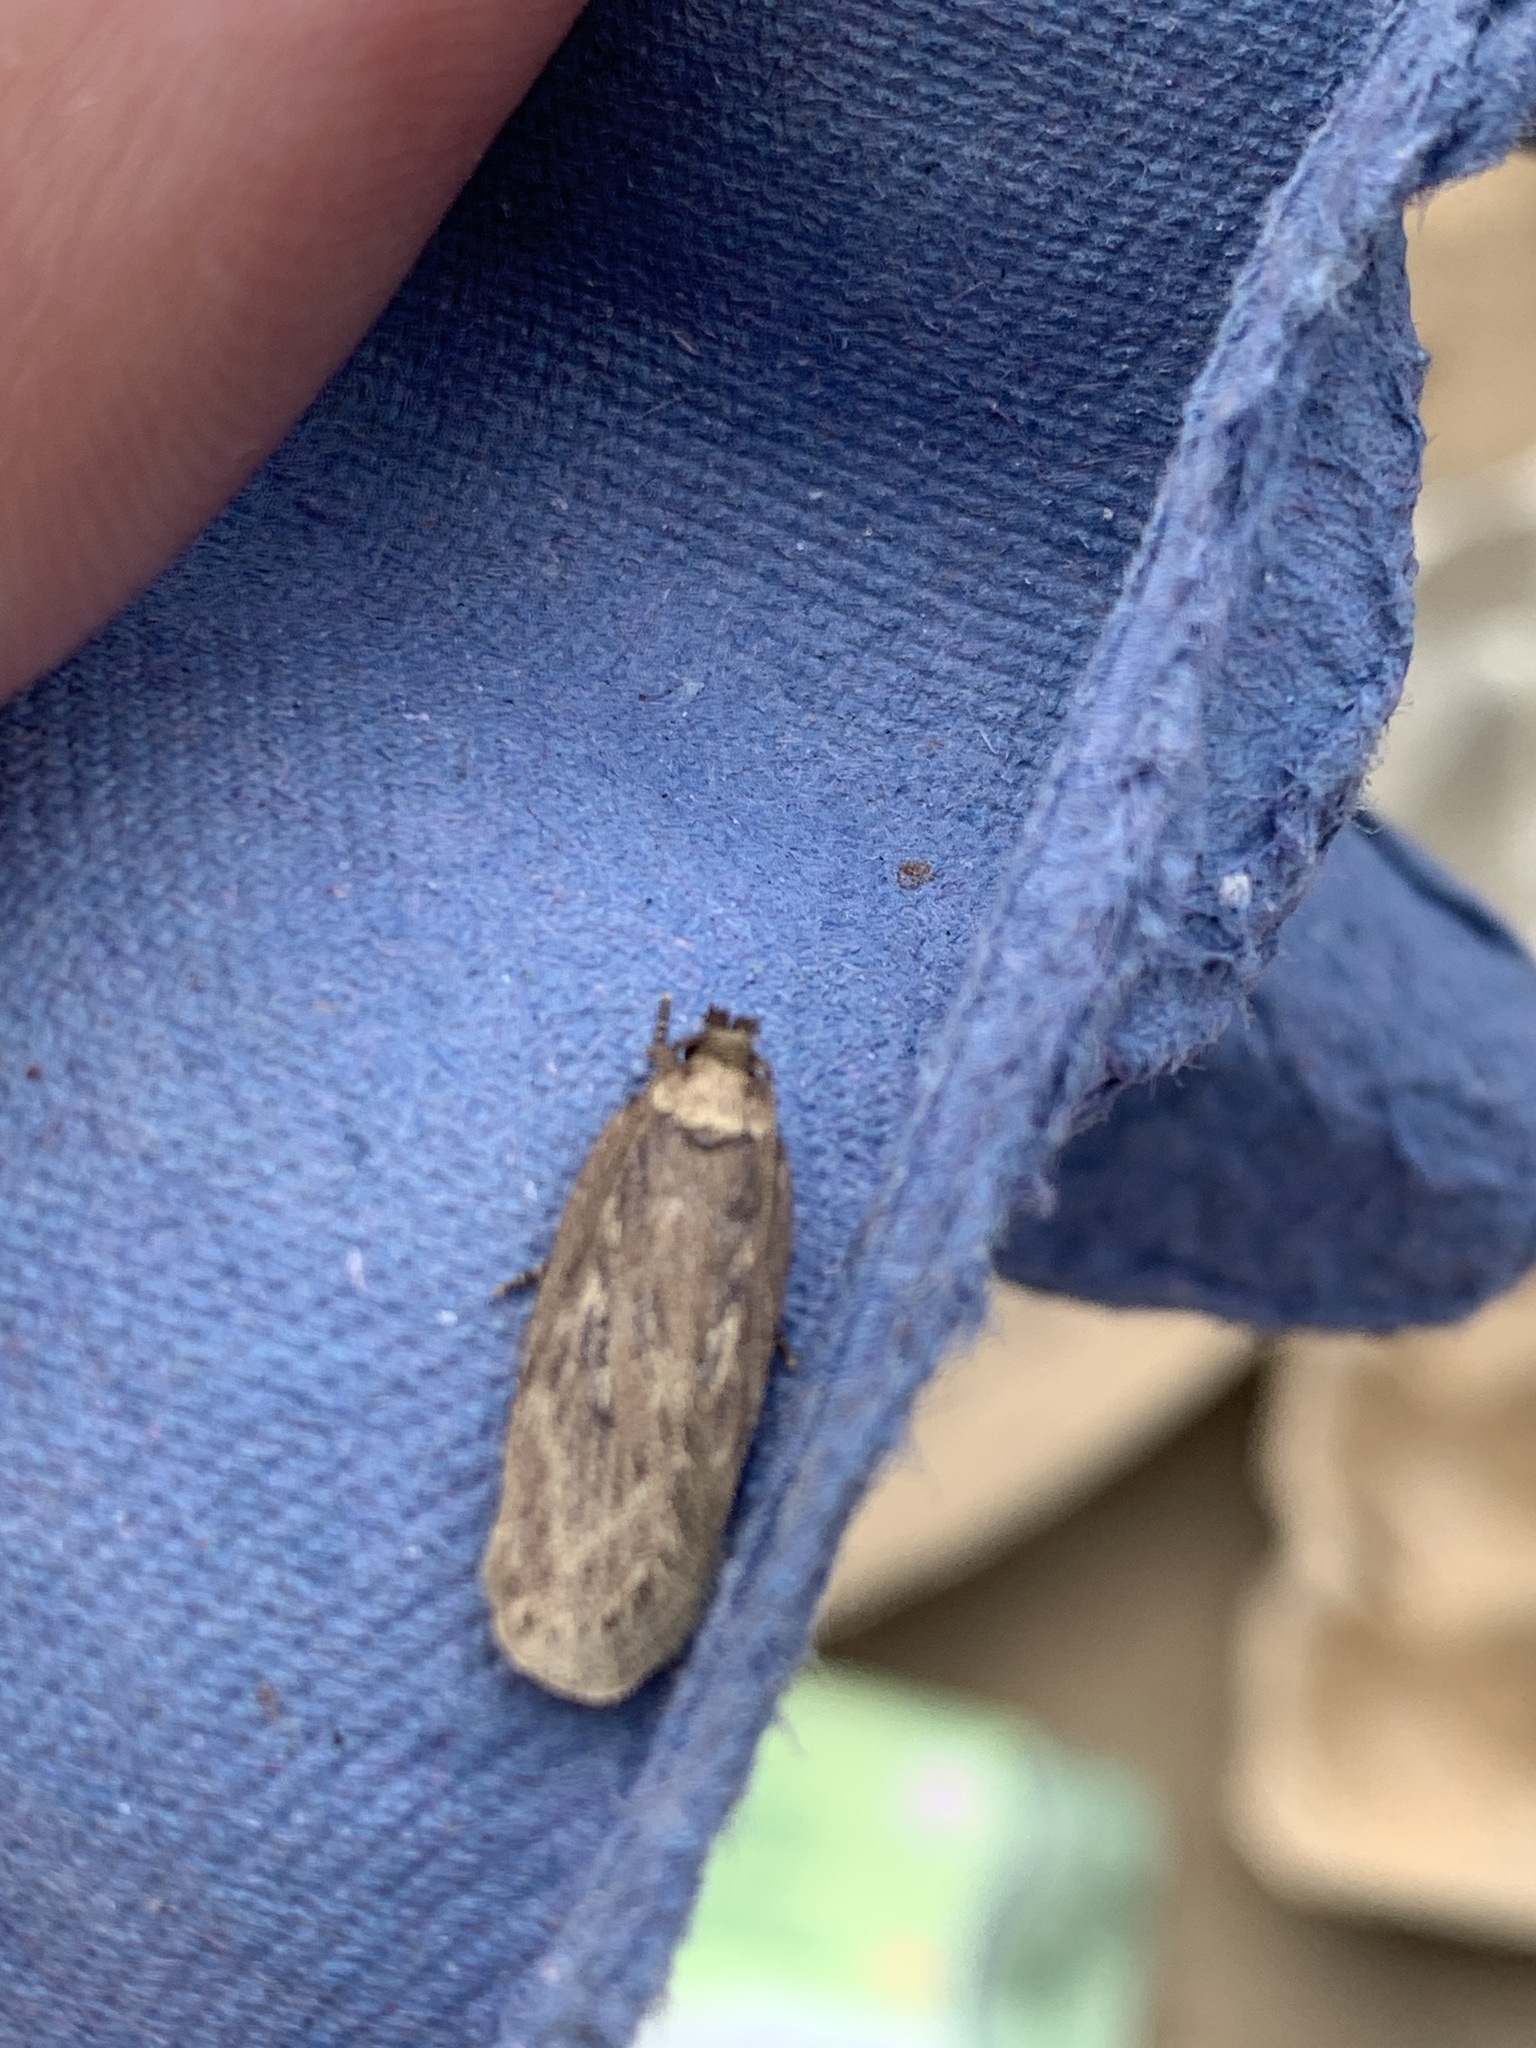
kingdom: Animalia
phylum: Arthropoda
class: Insecta
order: Lepidoptera
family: Depressariidae
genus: Depressaria
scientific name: Depressaria radiella
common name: Parsnip moth
